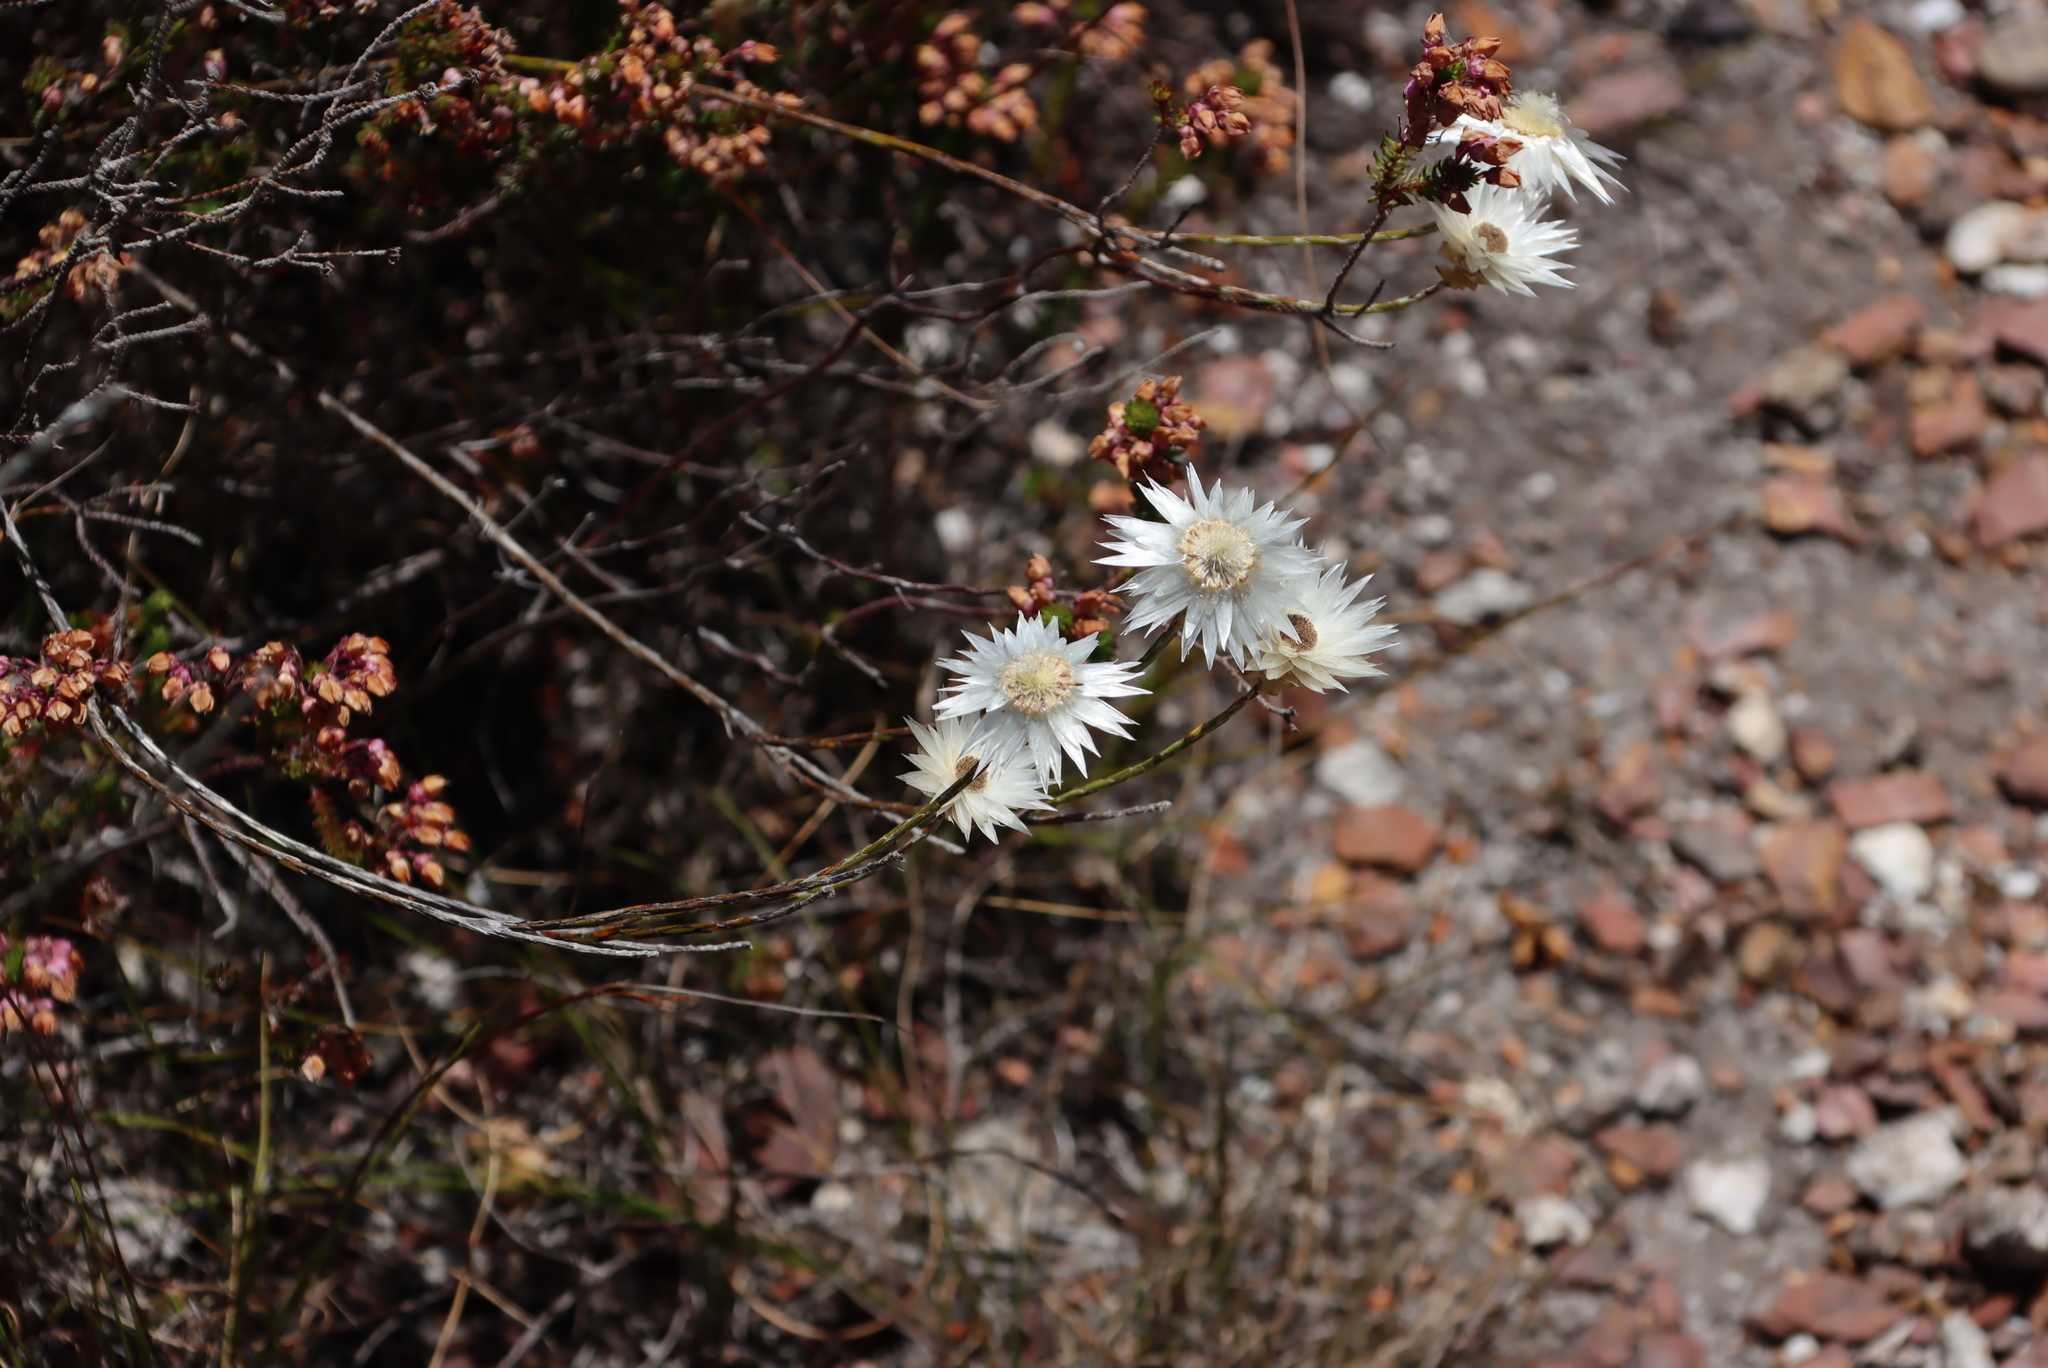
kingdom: Plantae
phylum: Tracheophyta
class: Magnoliopsida
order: Asterales
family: Asteraceae
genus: Edmondia
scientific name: Edmondia sesamoides
